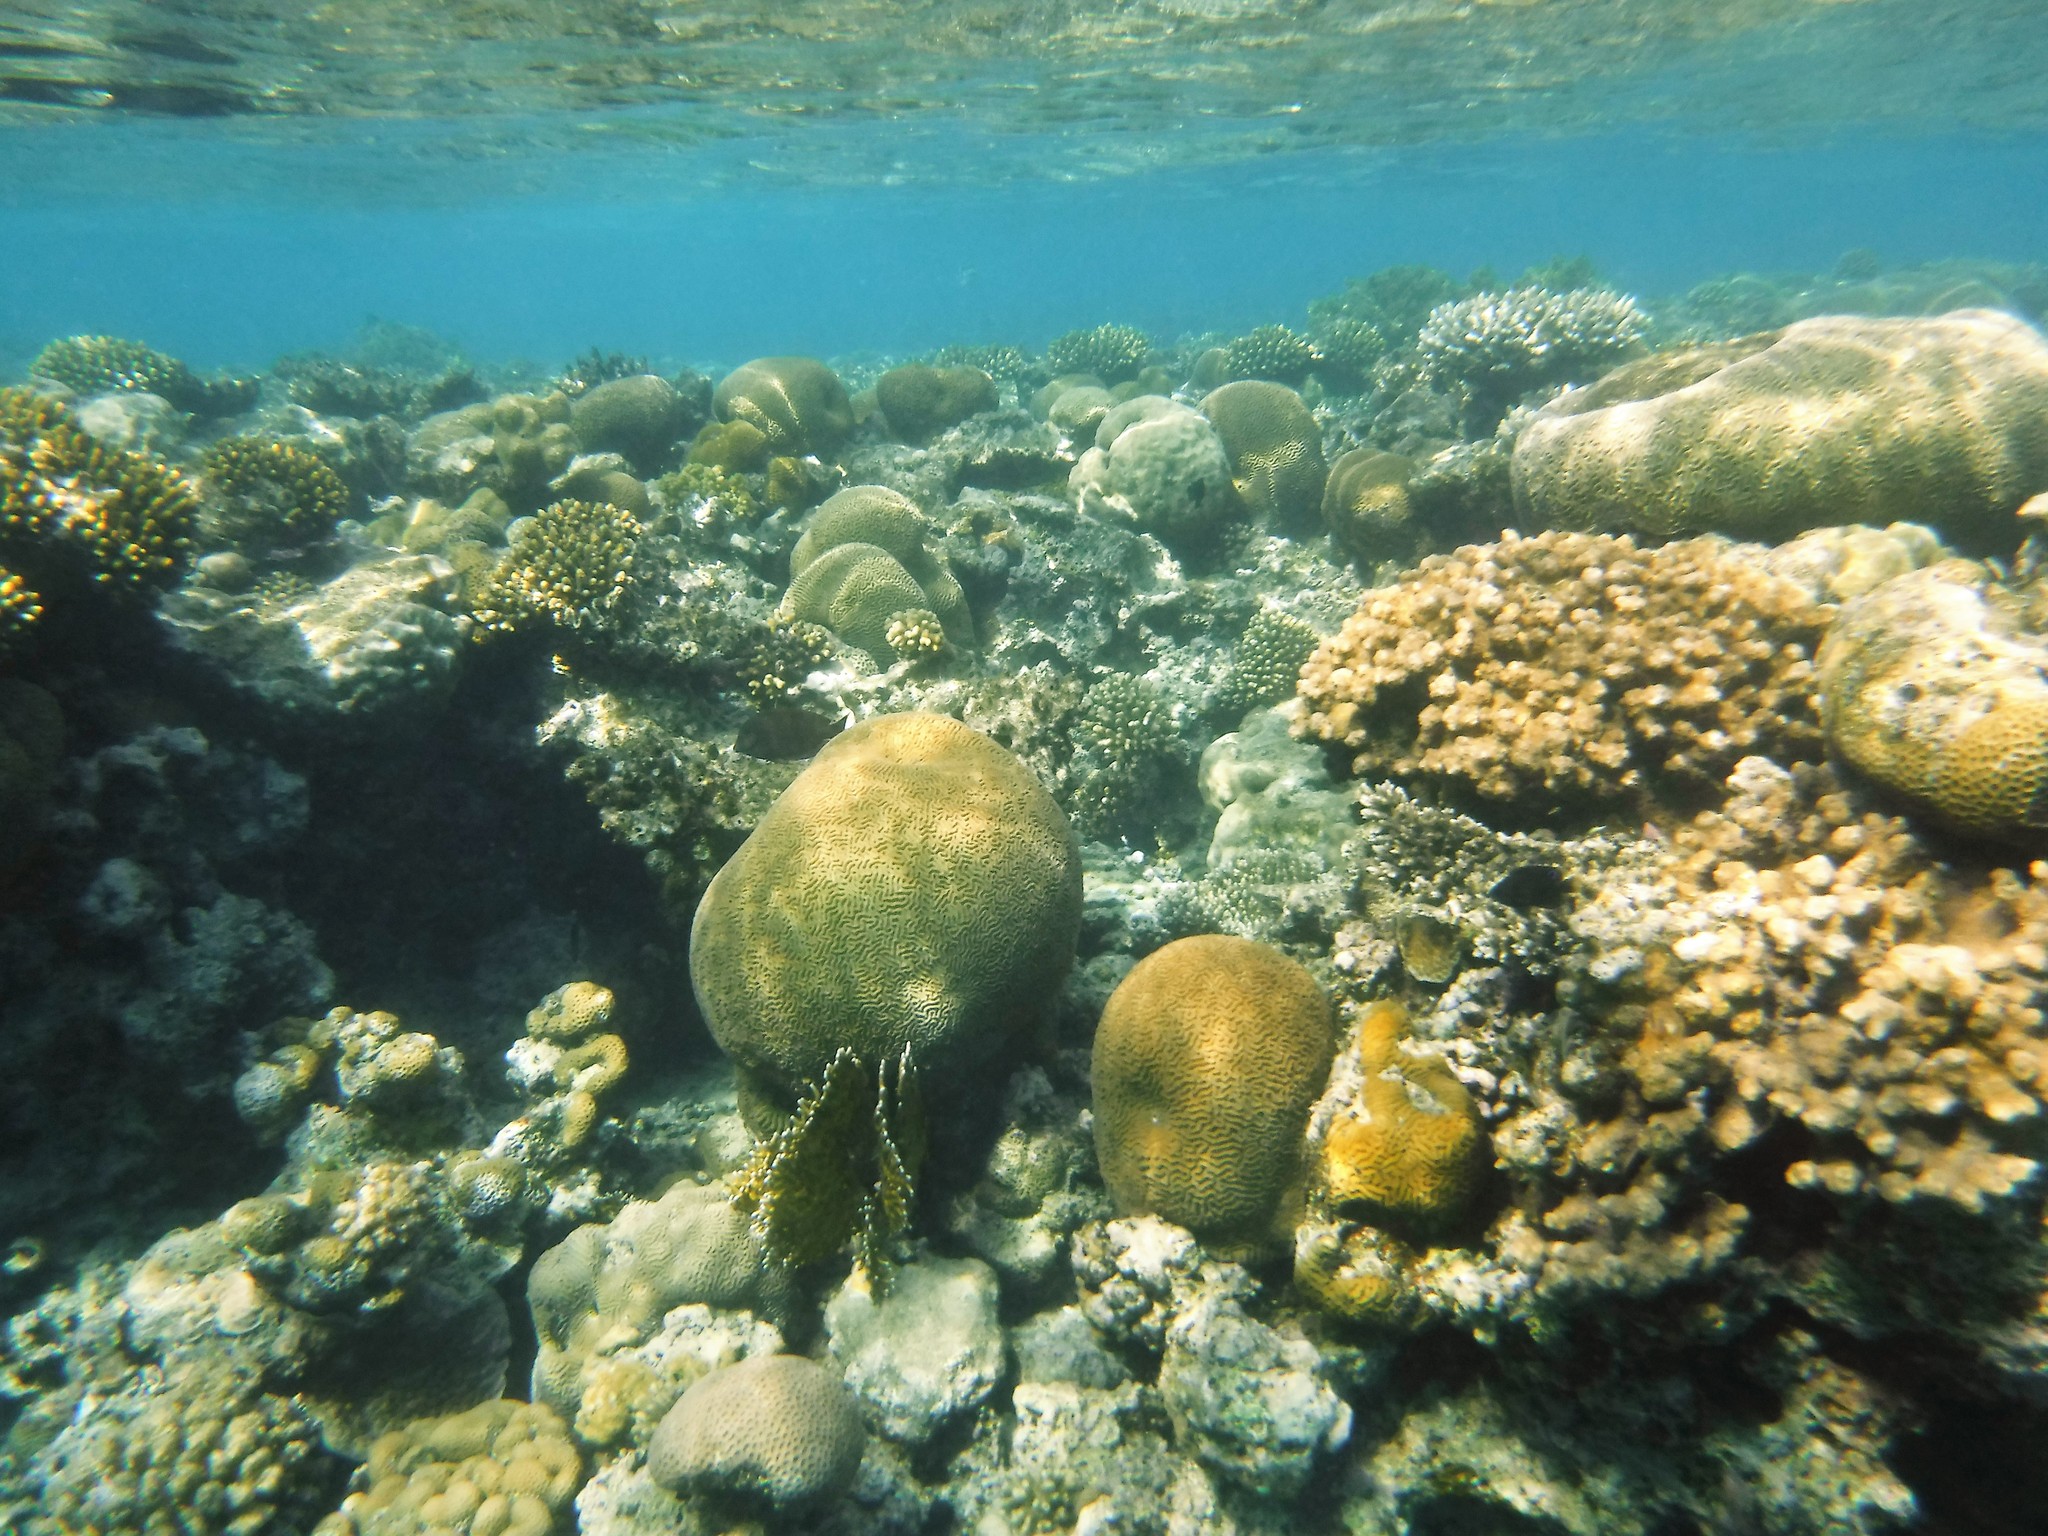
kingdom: Animalia
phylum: Cnidaria
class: Anthozoa
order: Scleractinia
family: Merulinidae
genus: Platygyra
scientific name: Platygyra daedalea
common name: Lesser valley coral
